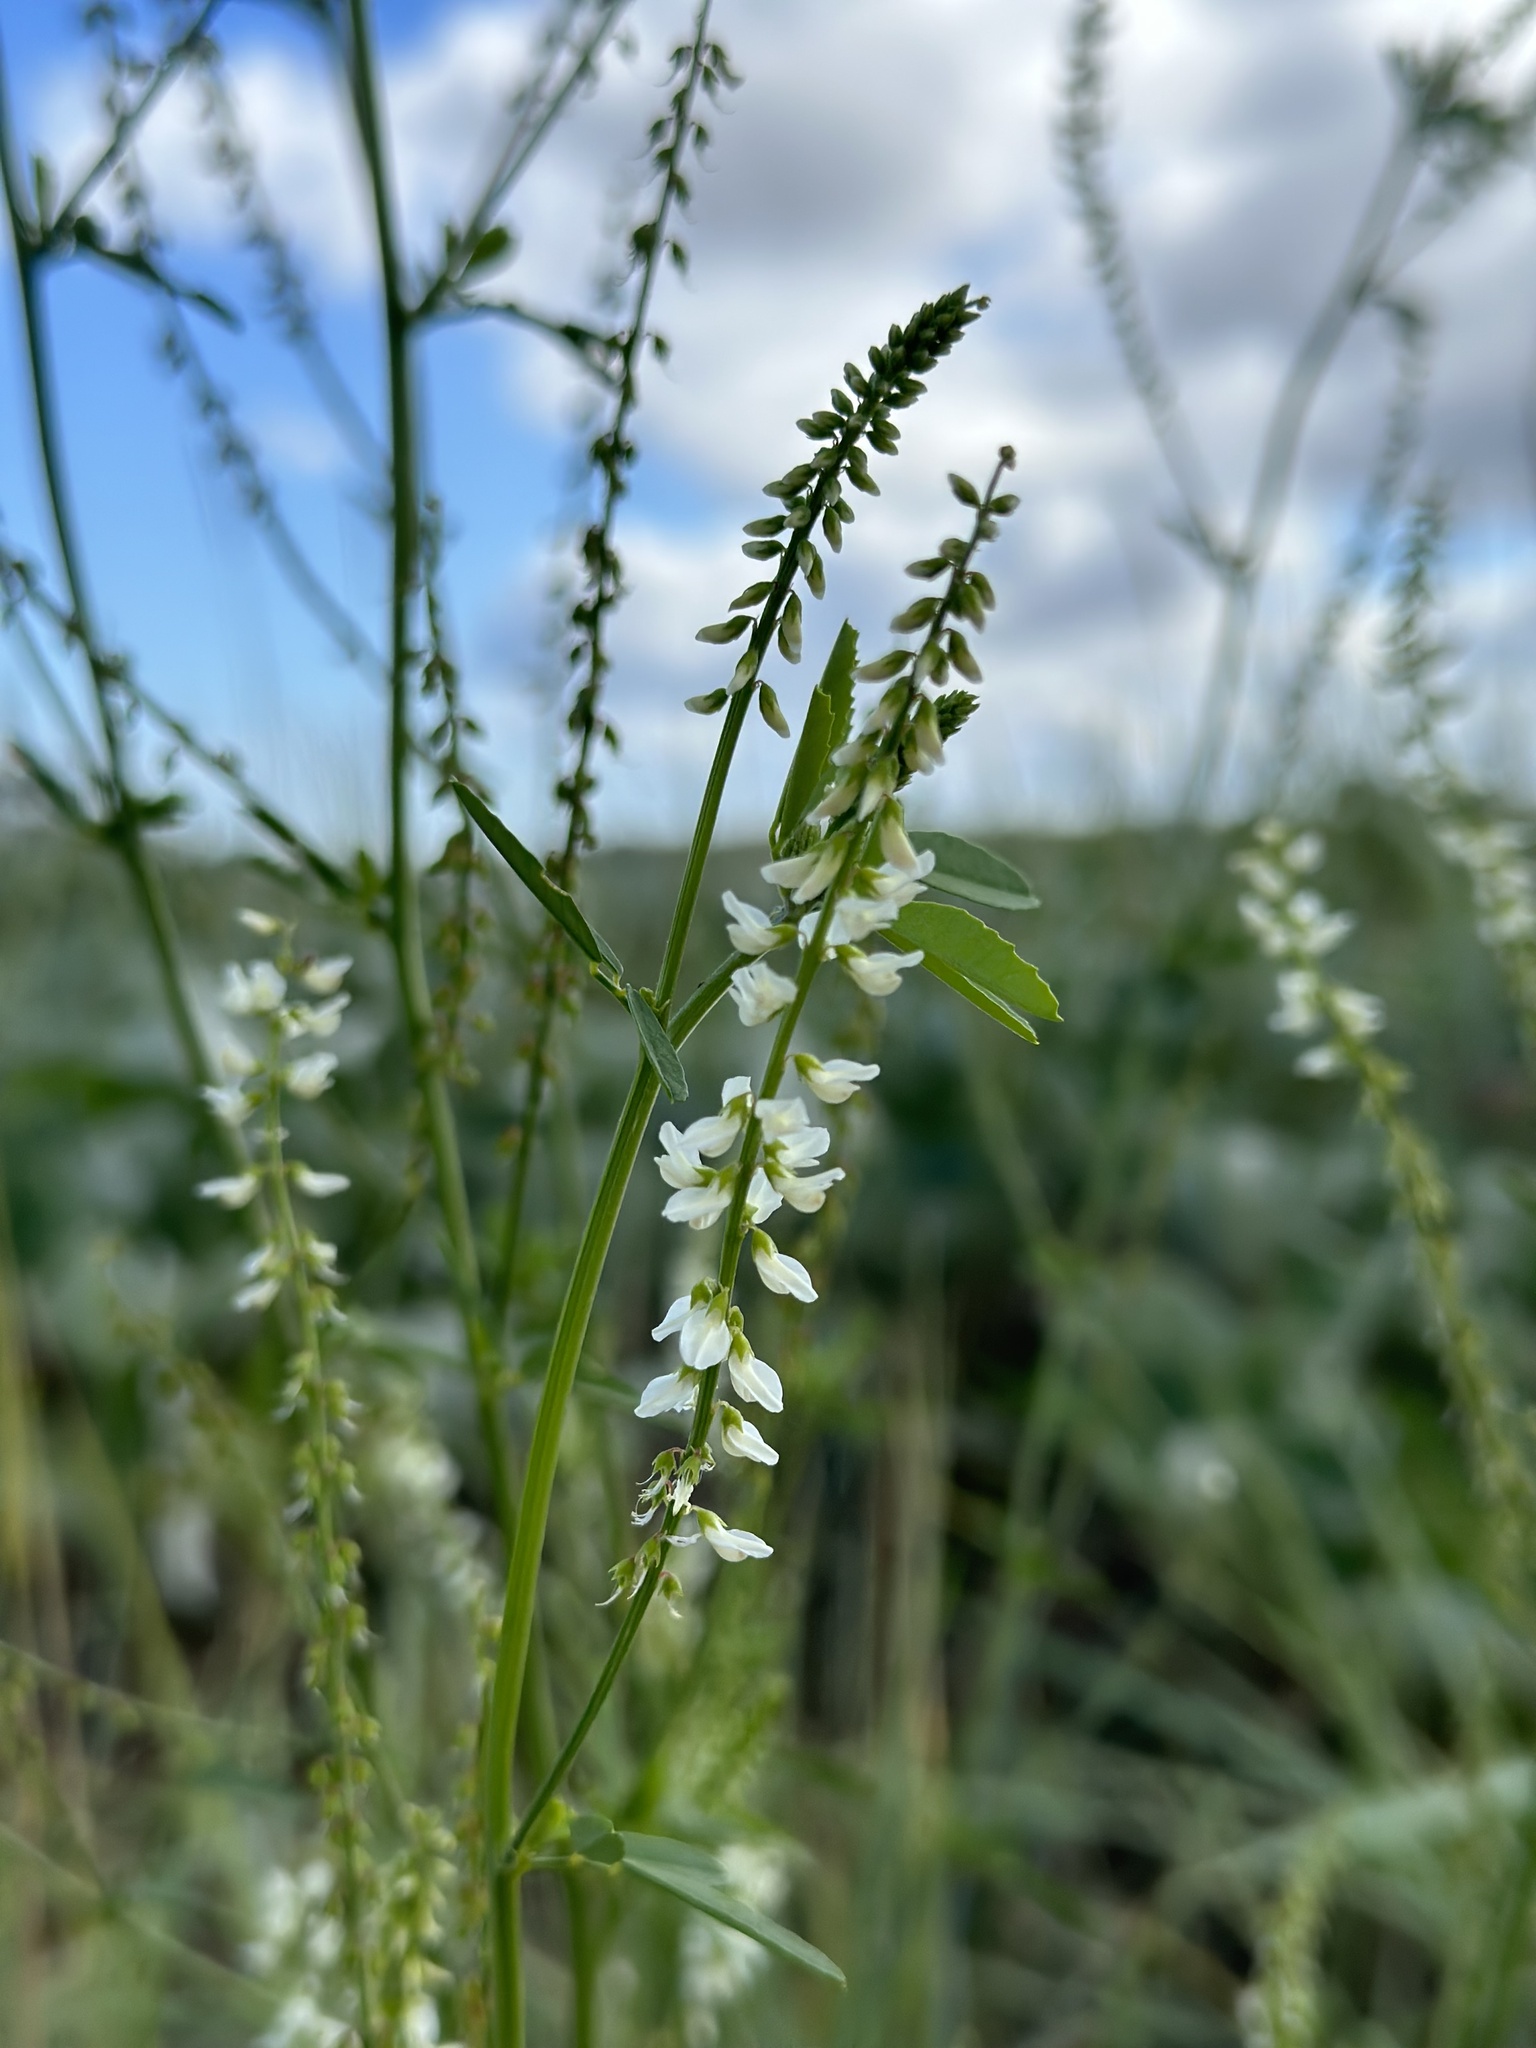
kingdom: Plantae
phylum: Tracheophyta
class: Magnoliopsida
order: Fabales
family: Fabaceae
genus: Melilotus
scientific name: Melilotus albus
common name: White melilot
